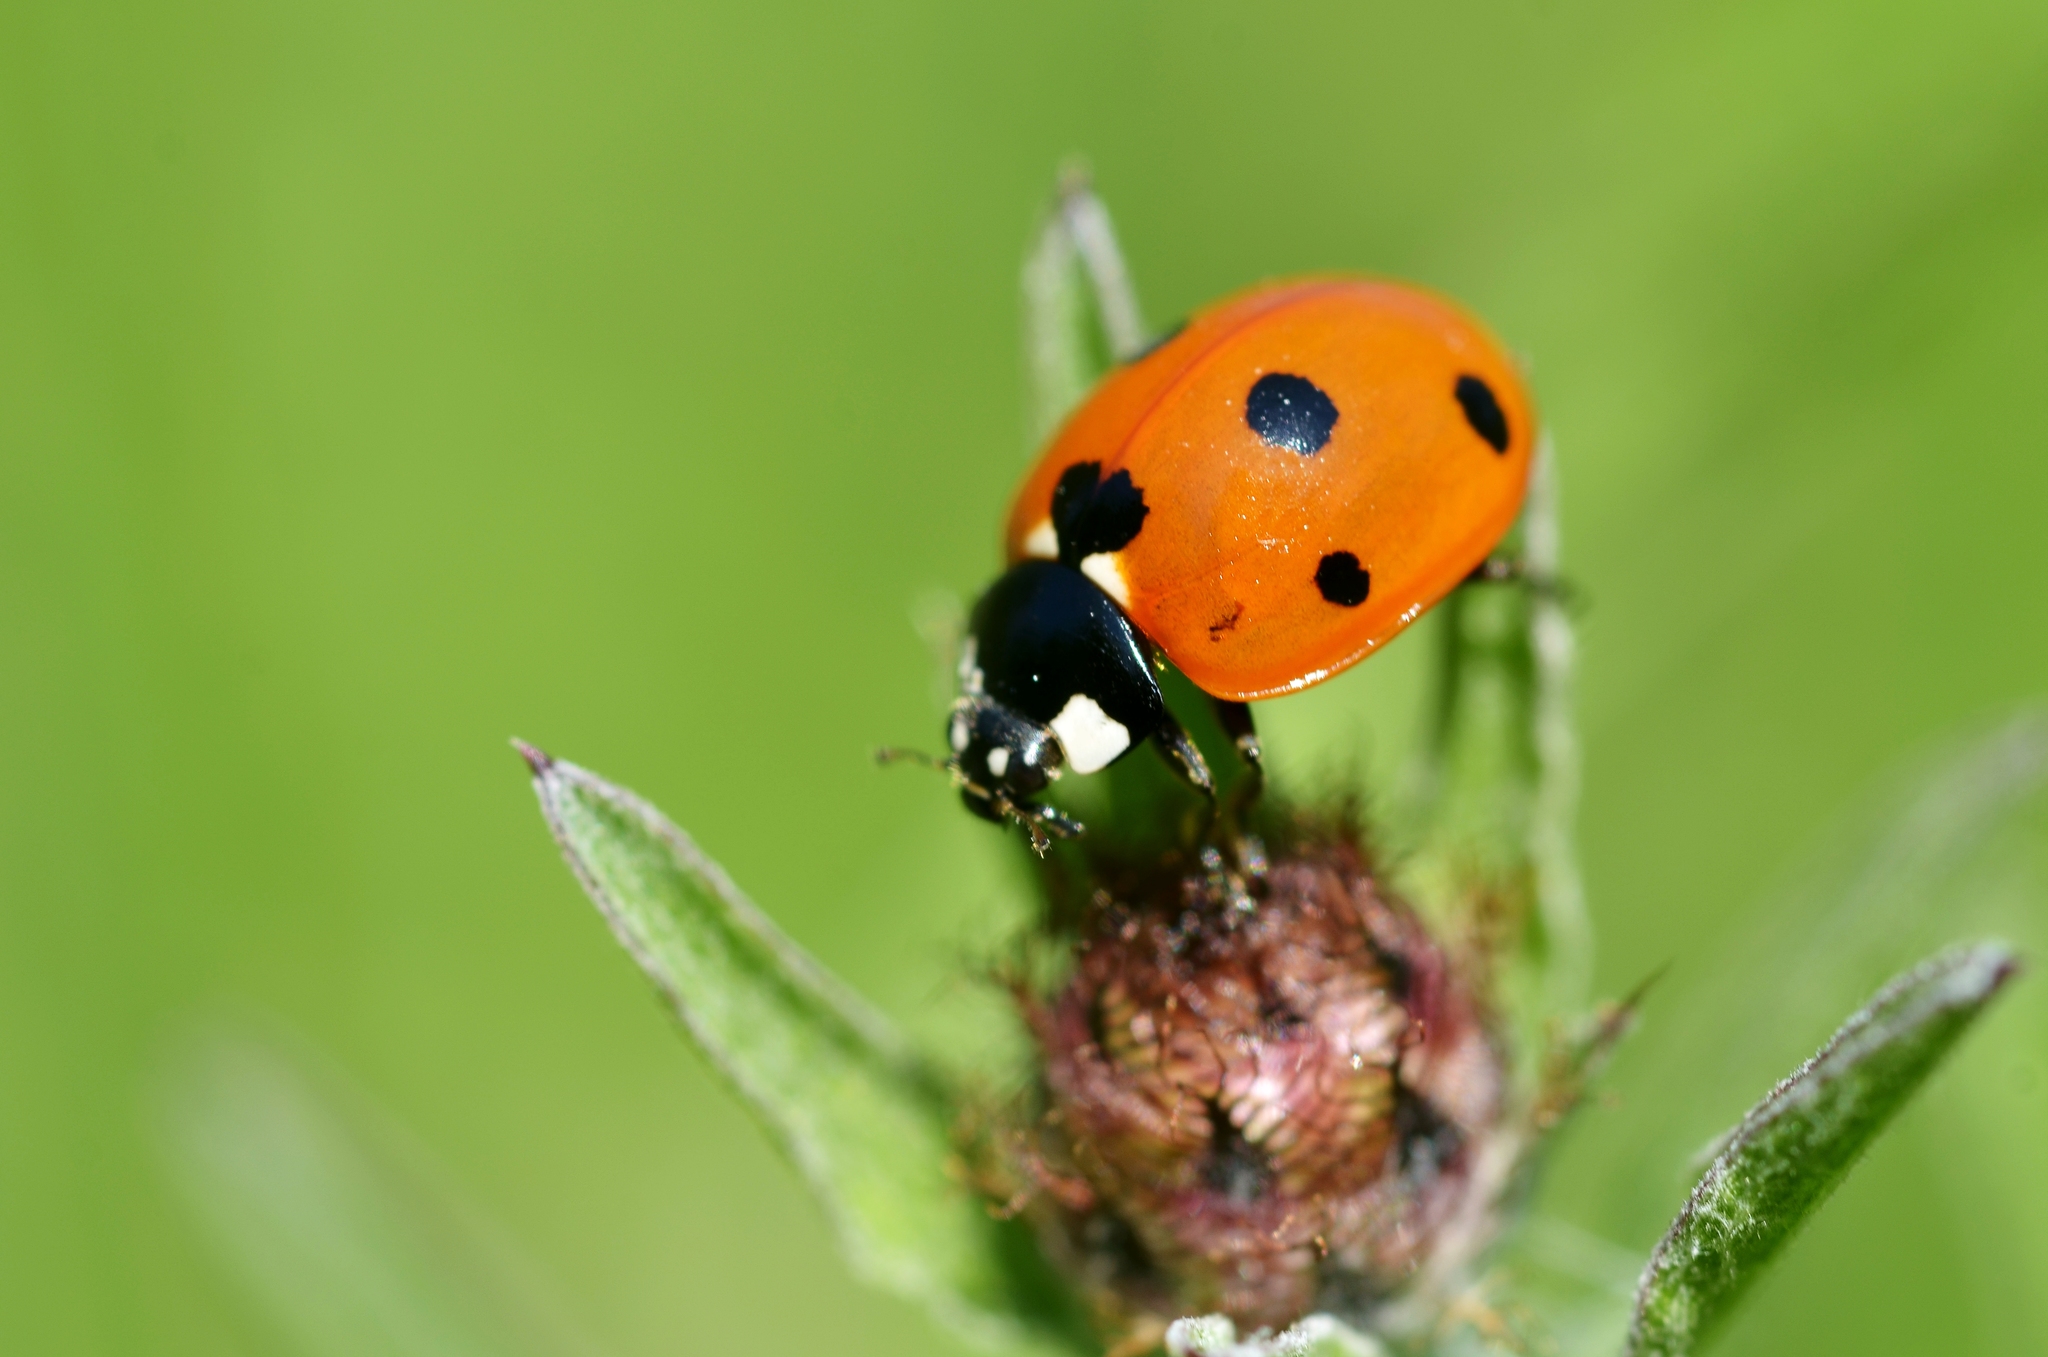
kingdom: Animalia
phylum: Arthropoda
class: Insecta
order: Coleoptera
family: Coccinellidae
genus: Coccinella
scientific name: Coccinella septempunctata
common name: Sevenspotted lady beetle
